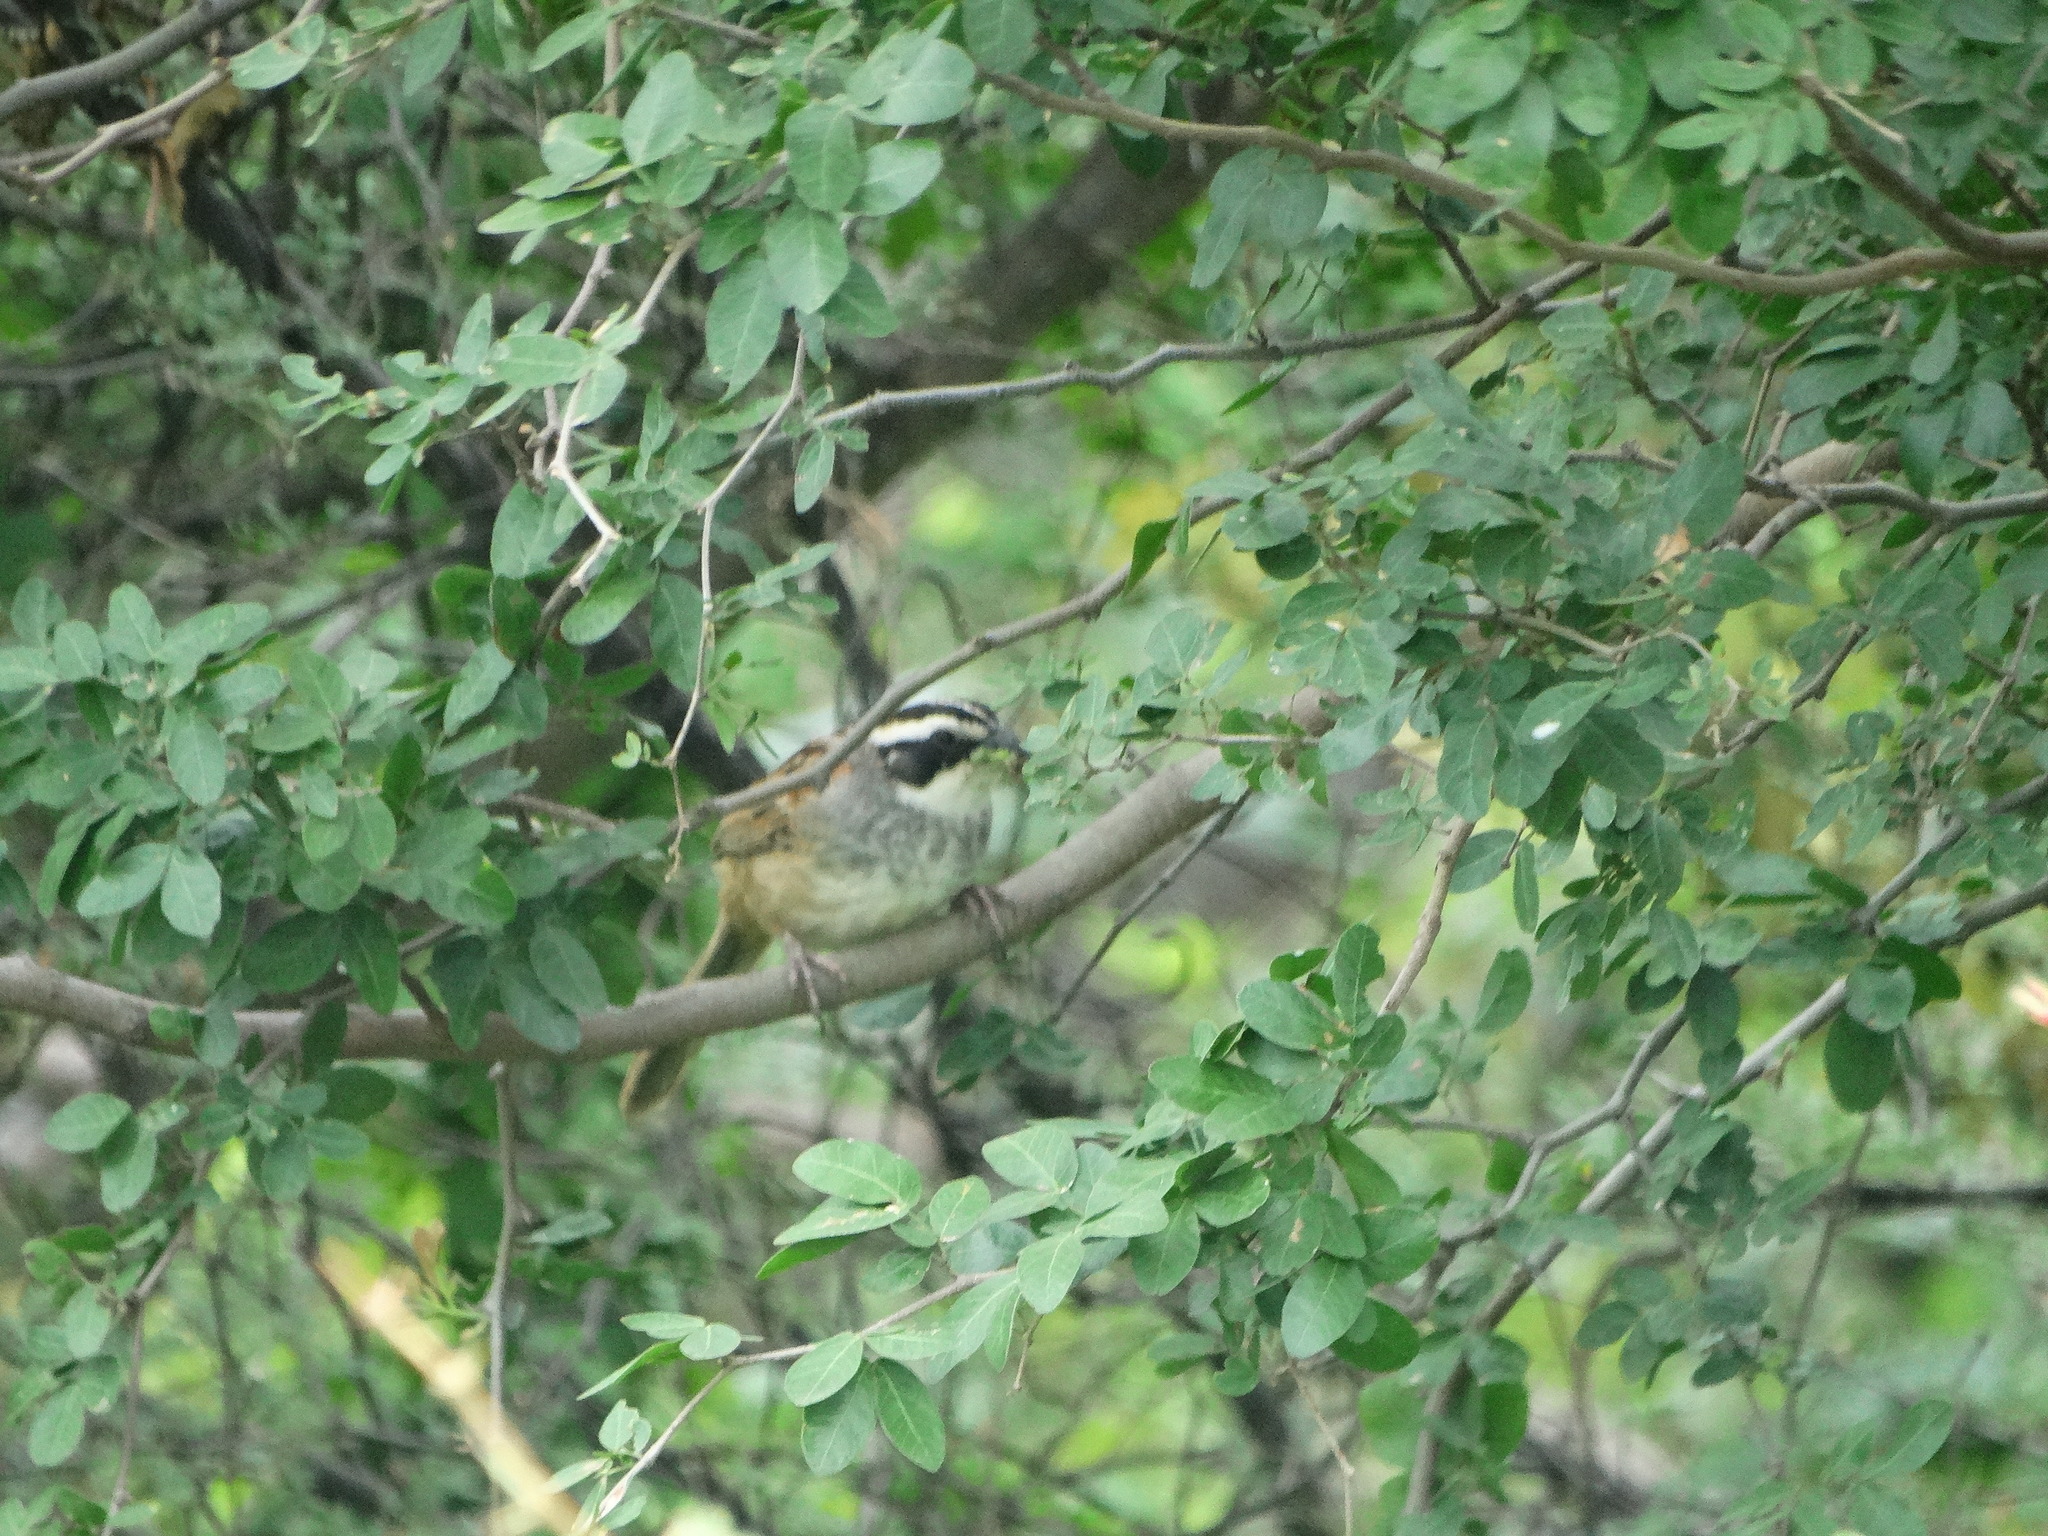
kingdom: Animalia
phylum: Chordata
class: Aves
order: Passeriformes
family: Passerellidae
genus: Peucaea
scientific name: Peucaea ruficauda
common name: Stripe-headed sparrow
